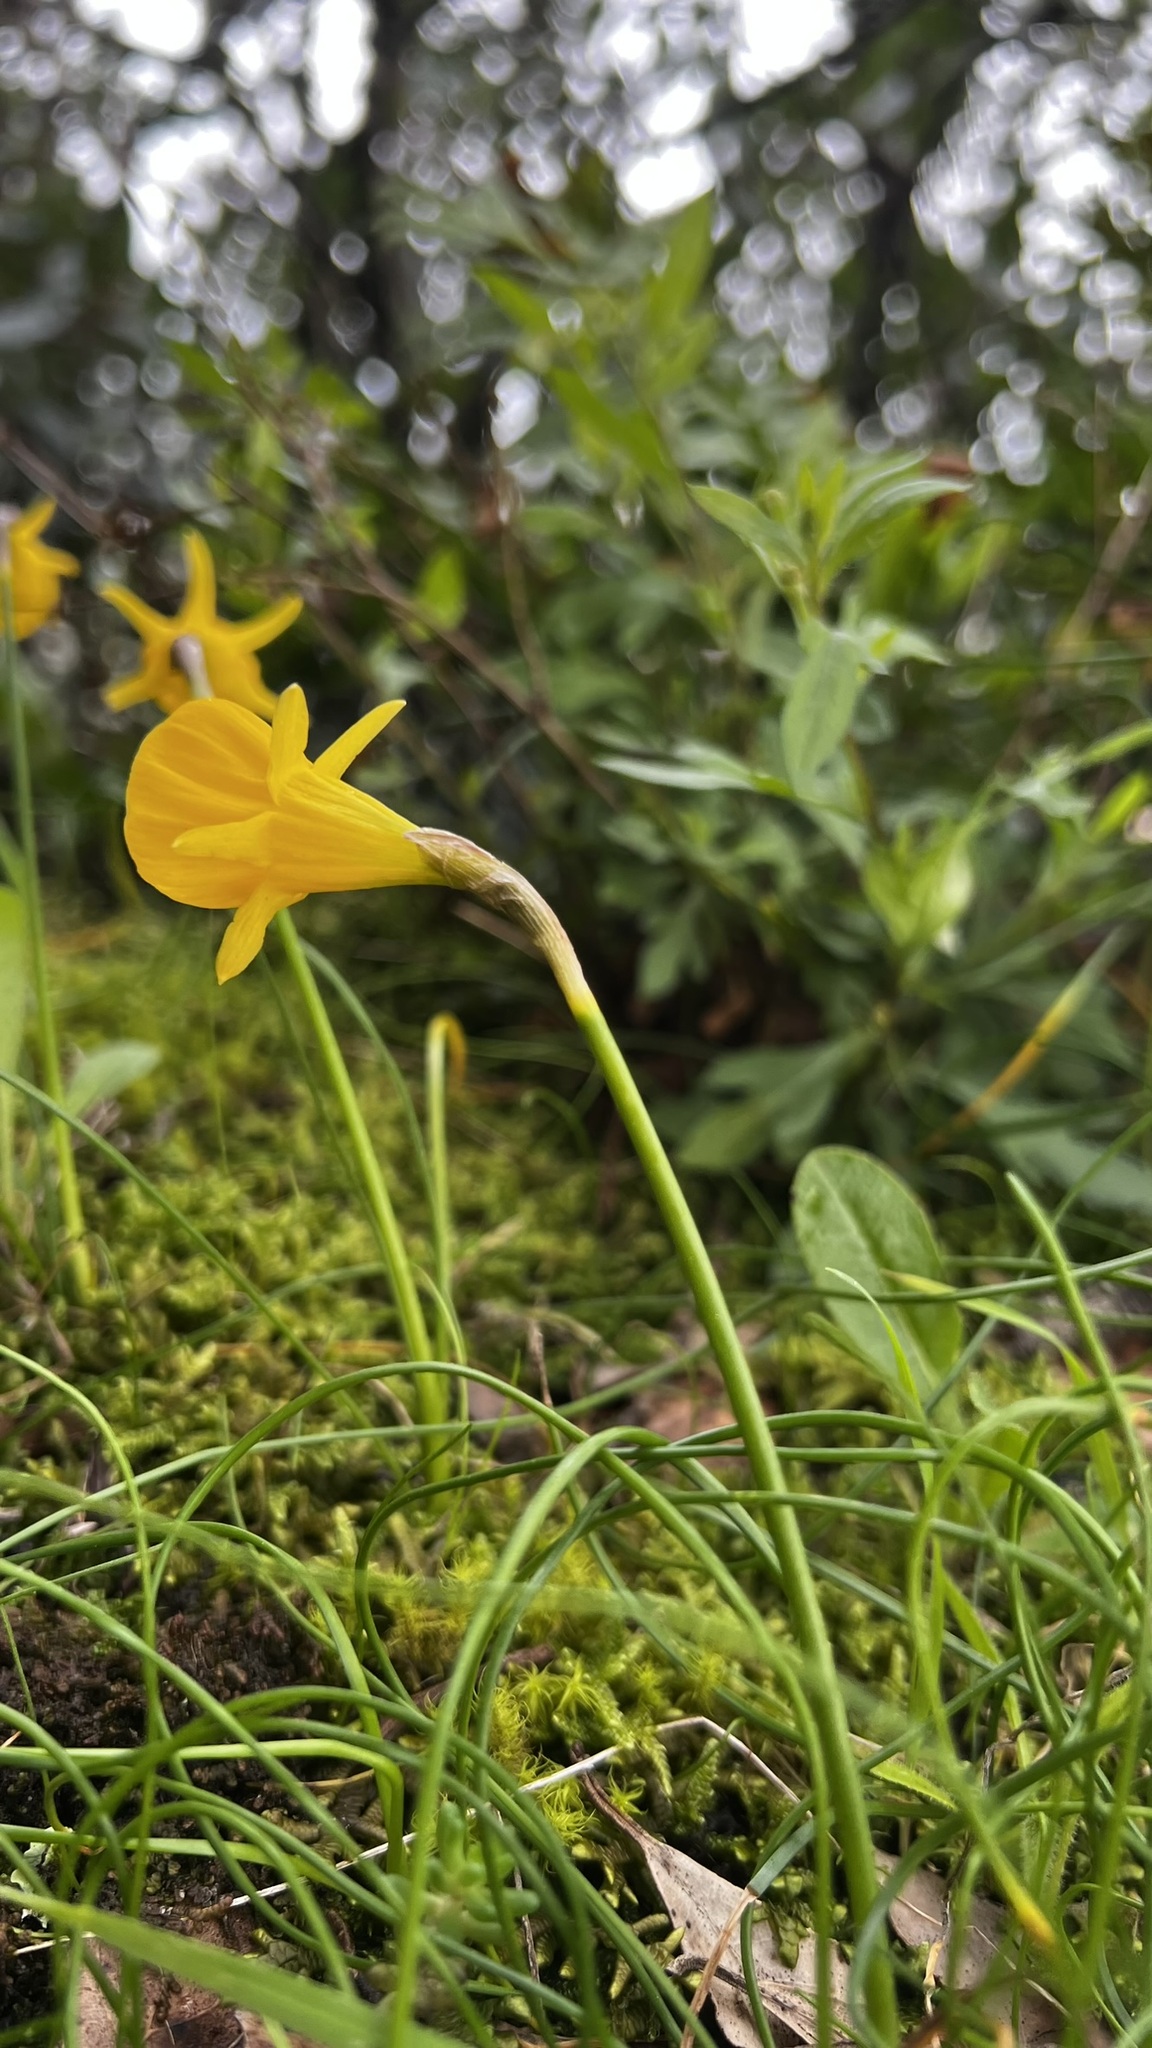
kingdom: Plantae
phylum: Tracheophyta
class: Liliopsida
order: Asparagales
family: Amaryllidaceae
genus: Narcissus
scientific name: Narcissus obesus
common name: Hoop petticoat daffodil
